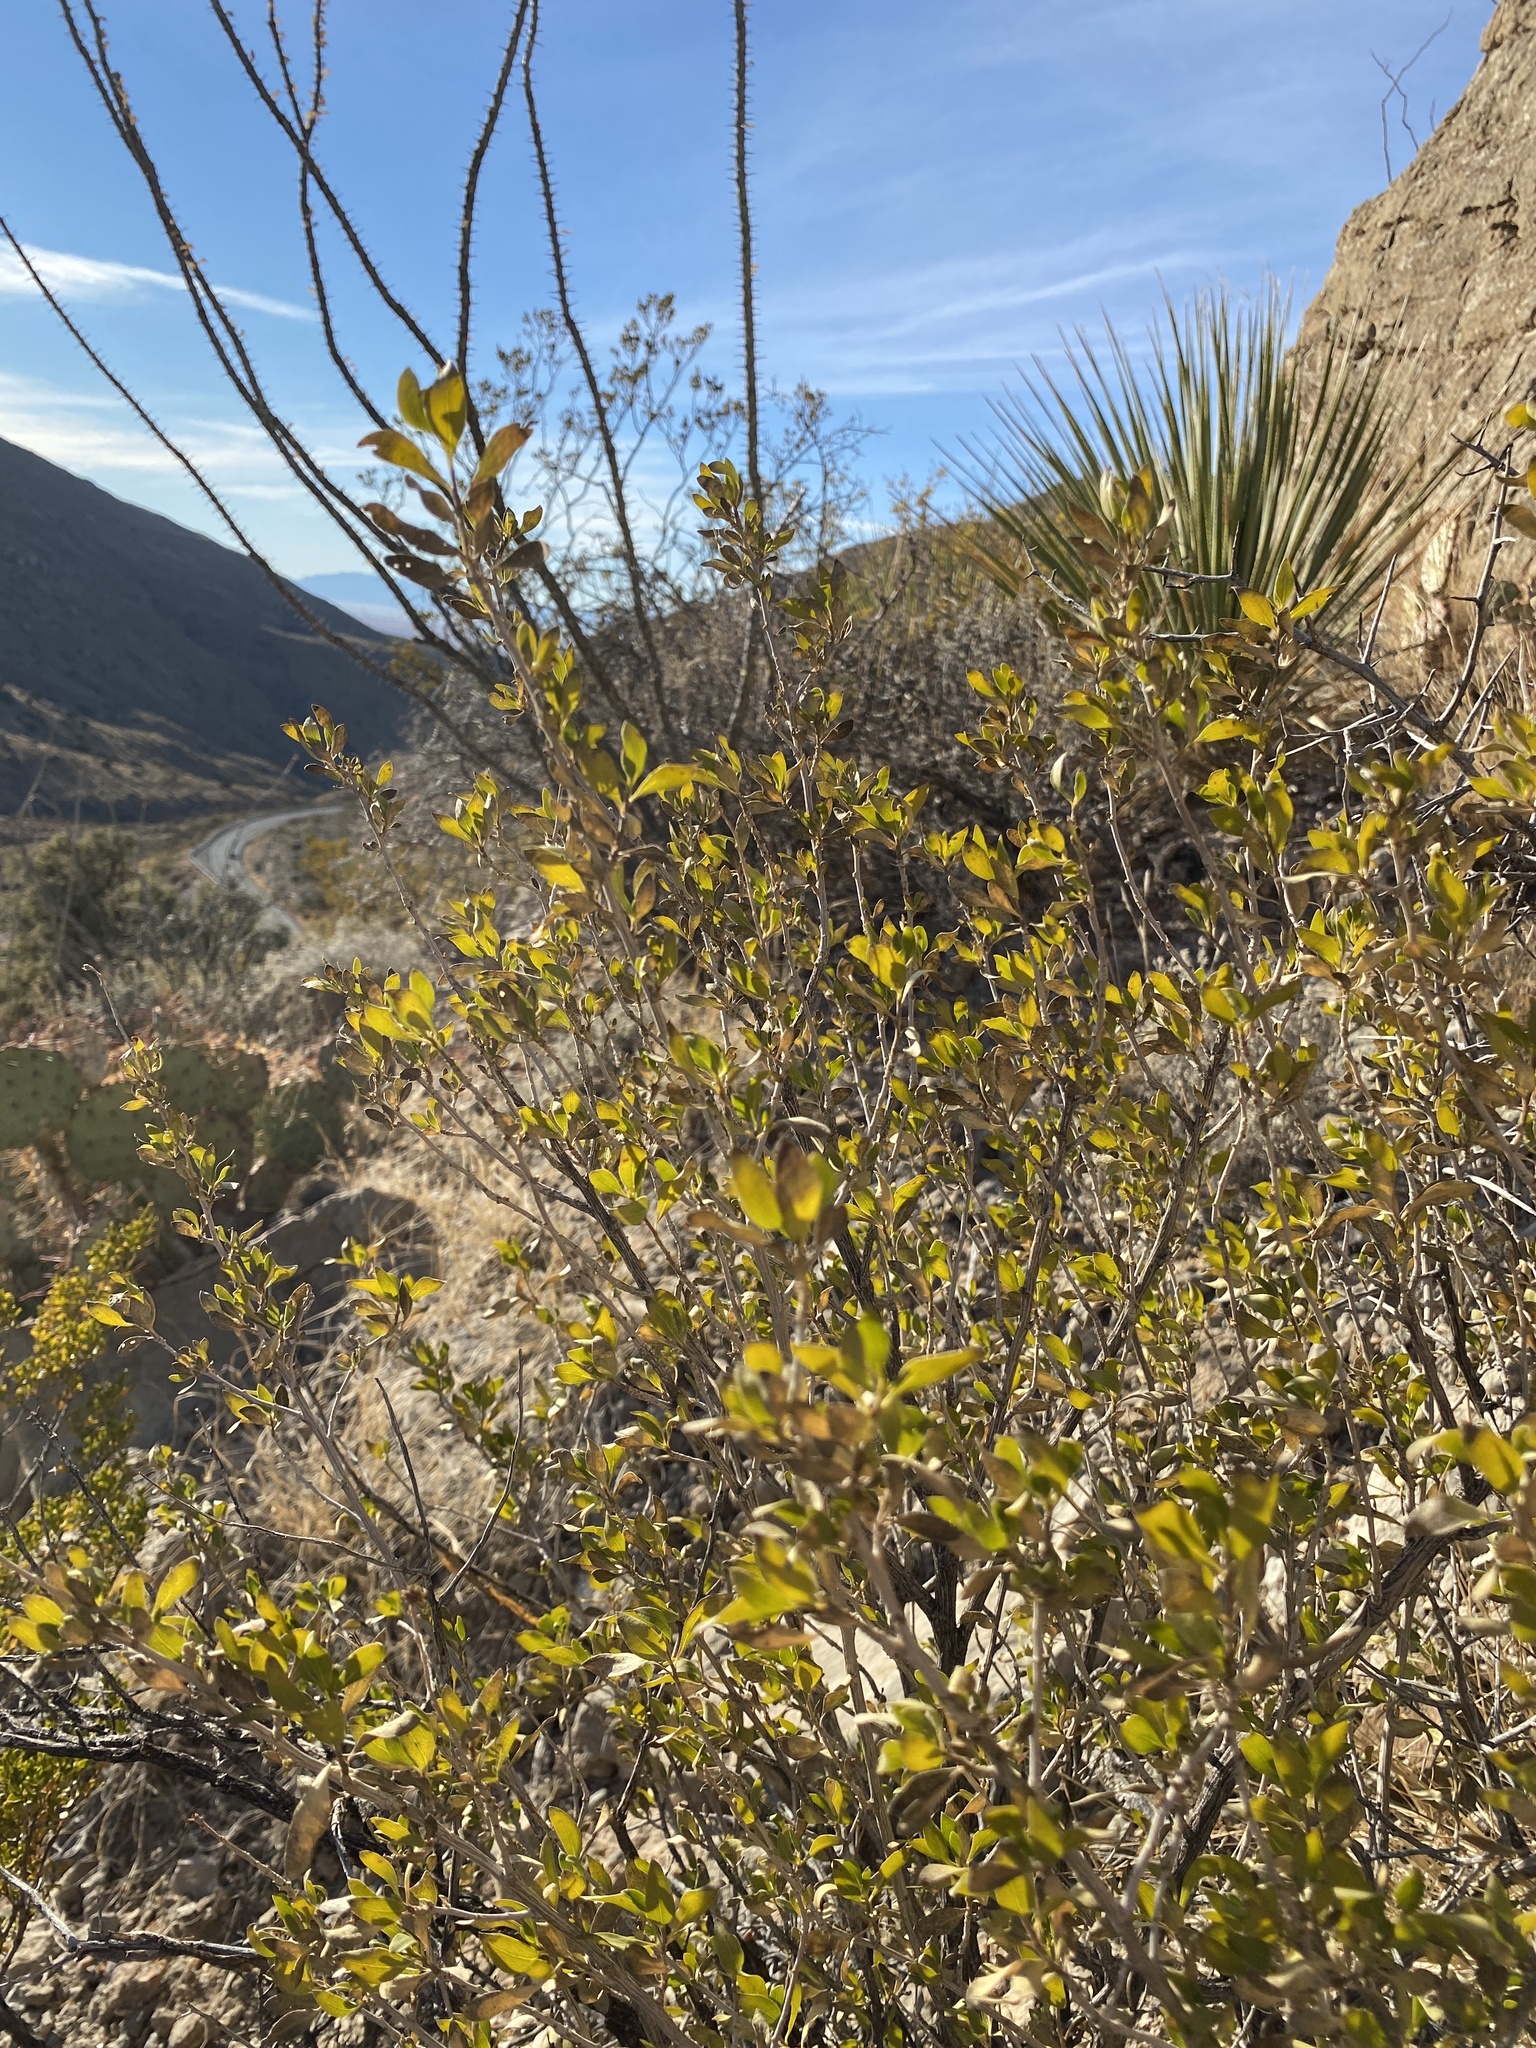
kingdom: Plantae
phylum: Tracheophyta
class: Magnoliopsida
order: Asterales
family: Asteraceae
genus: Flourensia
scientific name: Flourensia cernua
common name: Varnishbush
